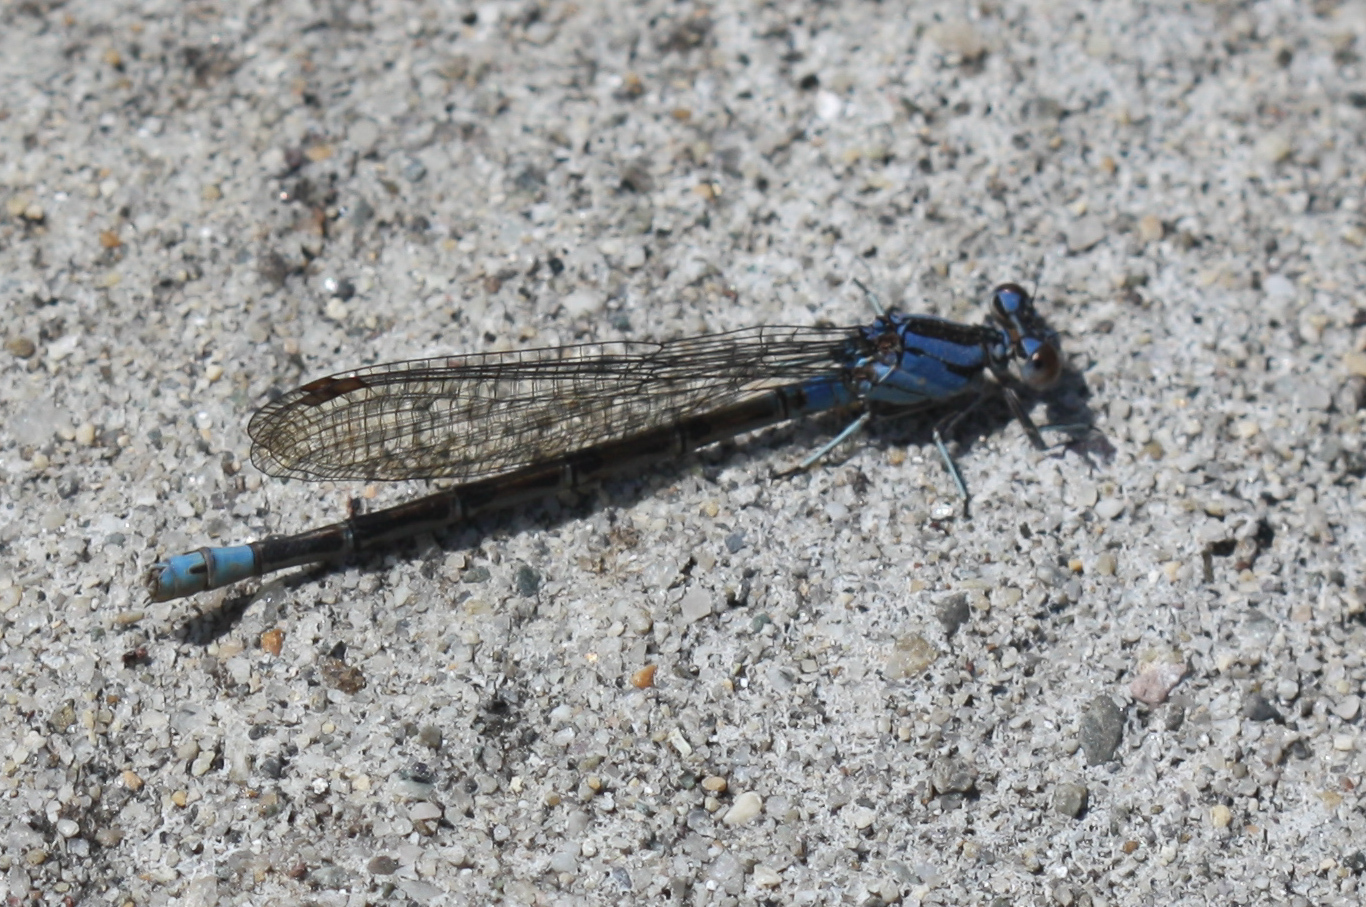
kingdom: Animalia
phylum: Arthropoda
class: Insecta
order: Odonata
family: Coenagrionidae
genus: Argia
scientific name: Argia vivida
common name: Vivid dancer
